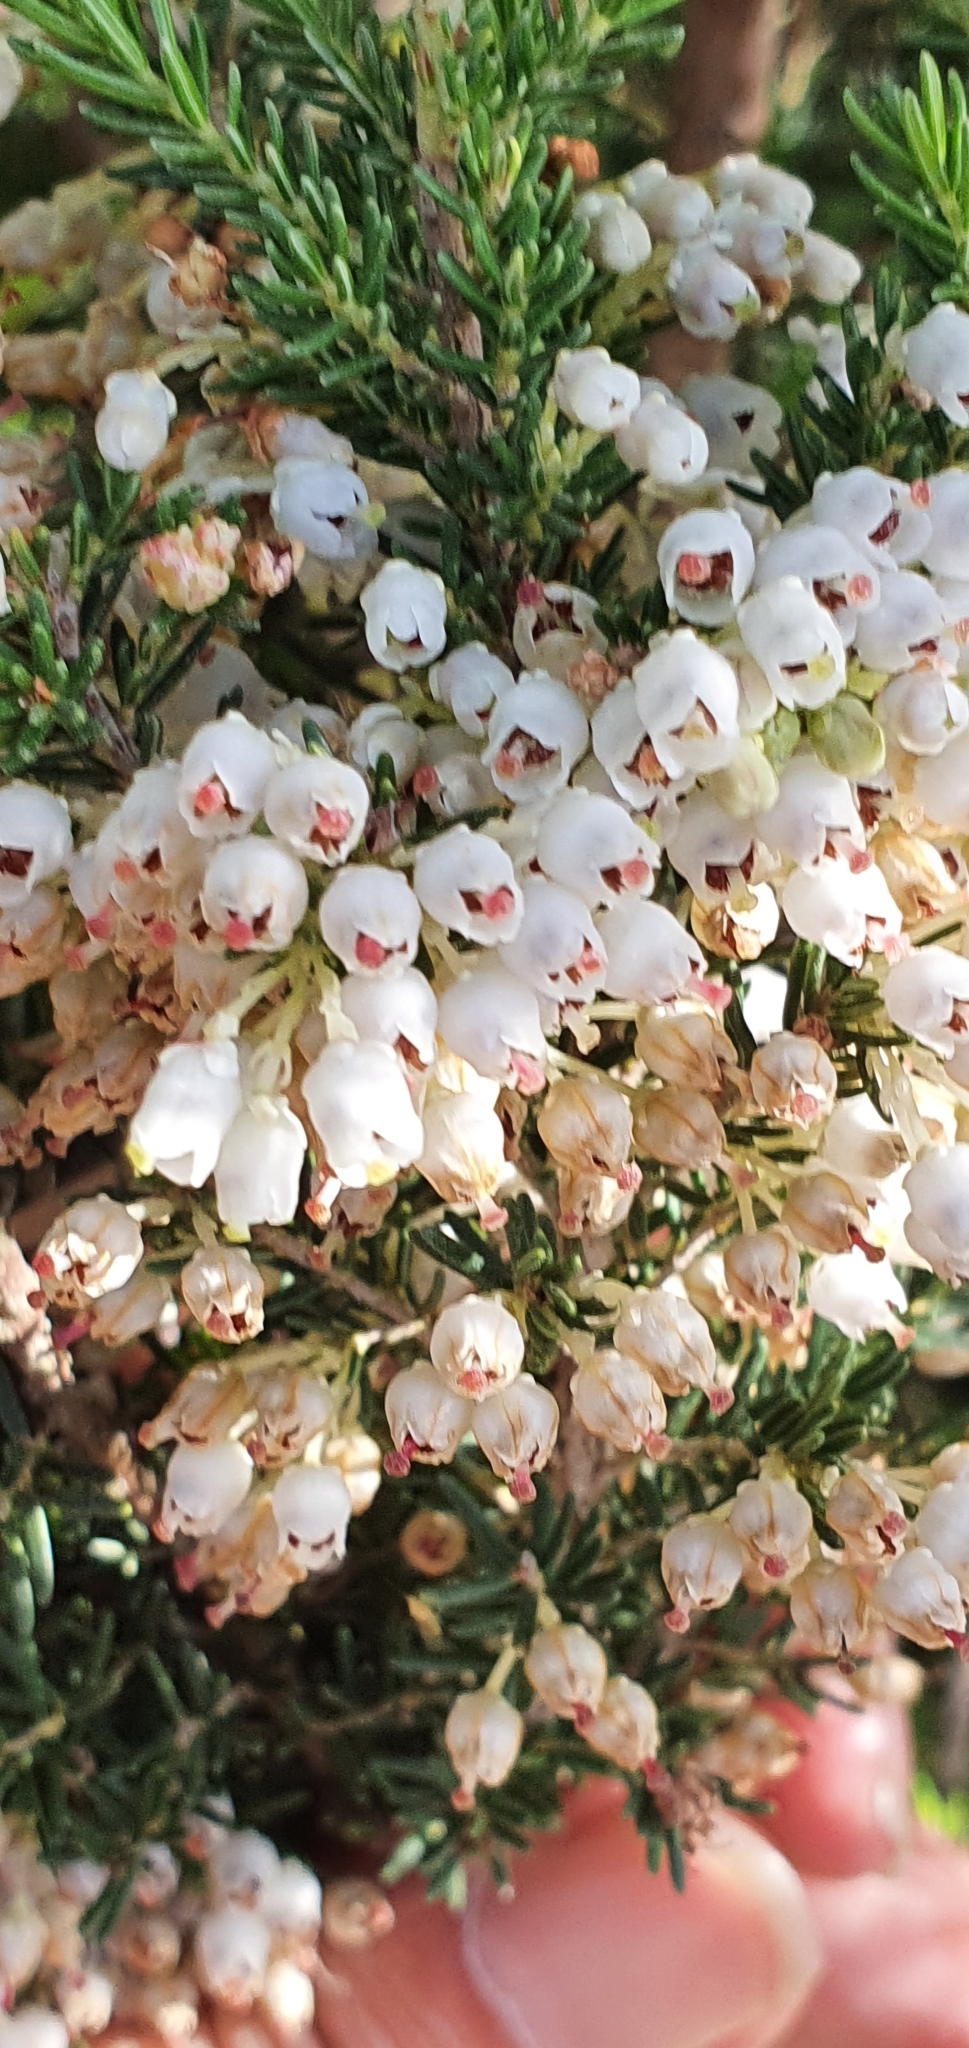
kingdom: Plantae
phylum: Tracheophyta
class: Magnoliopsida
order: Ericales
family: Ericaceae
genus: Erica
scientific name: Erica arborea
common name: Tree heath
